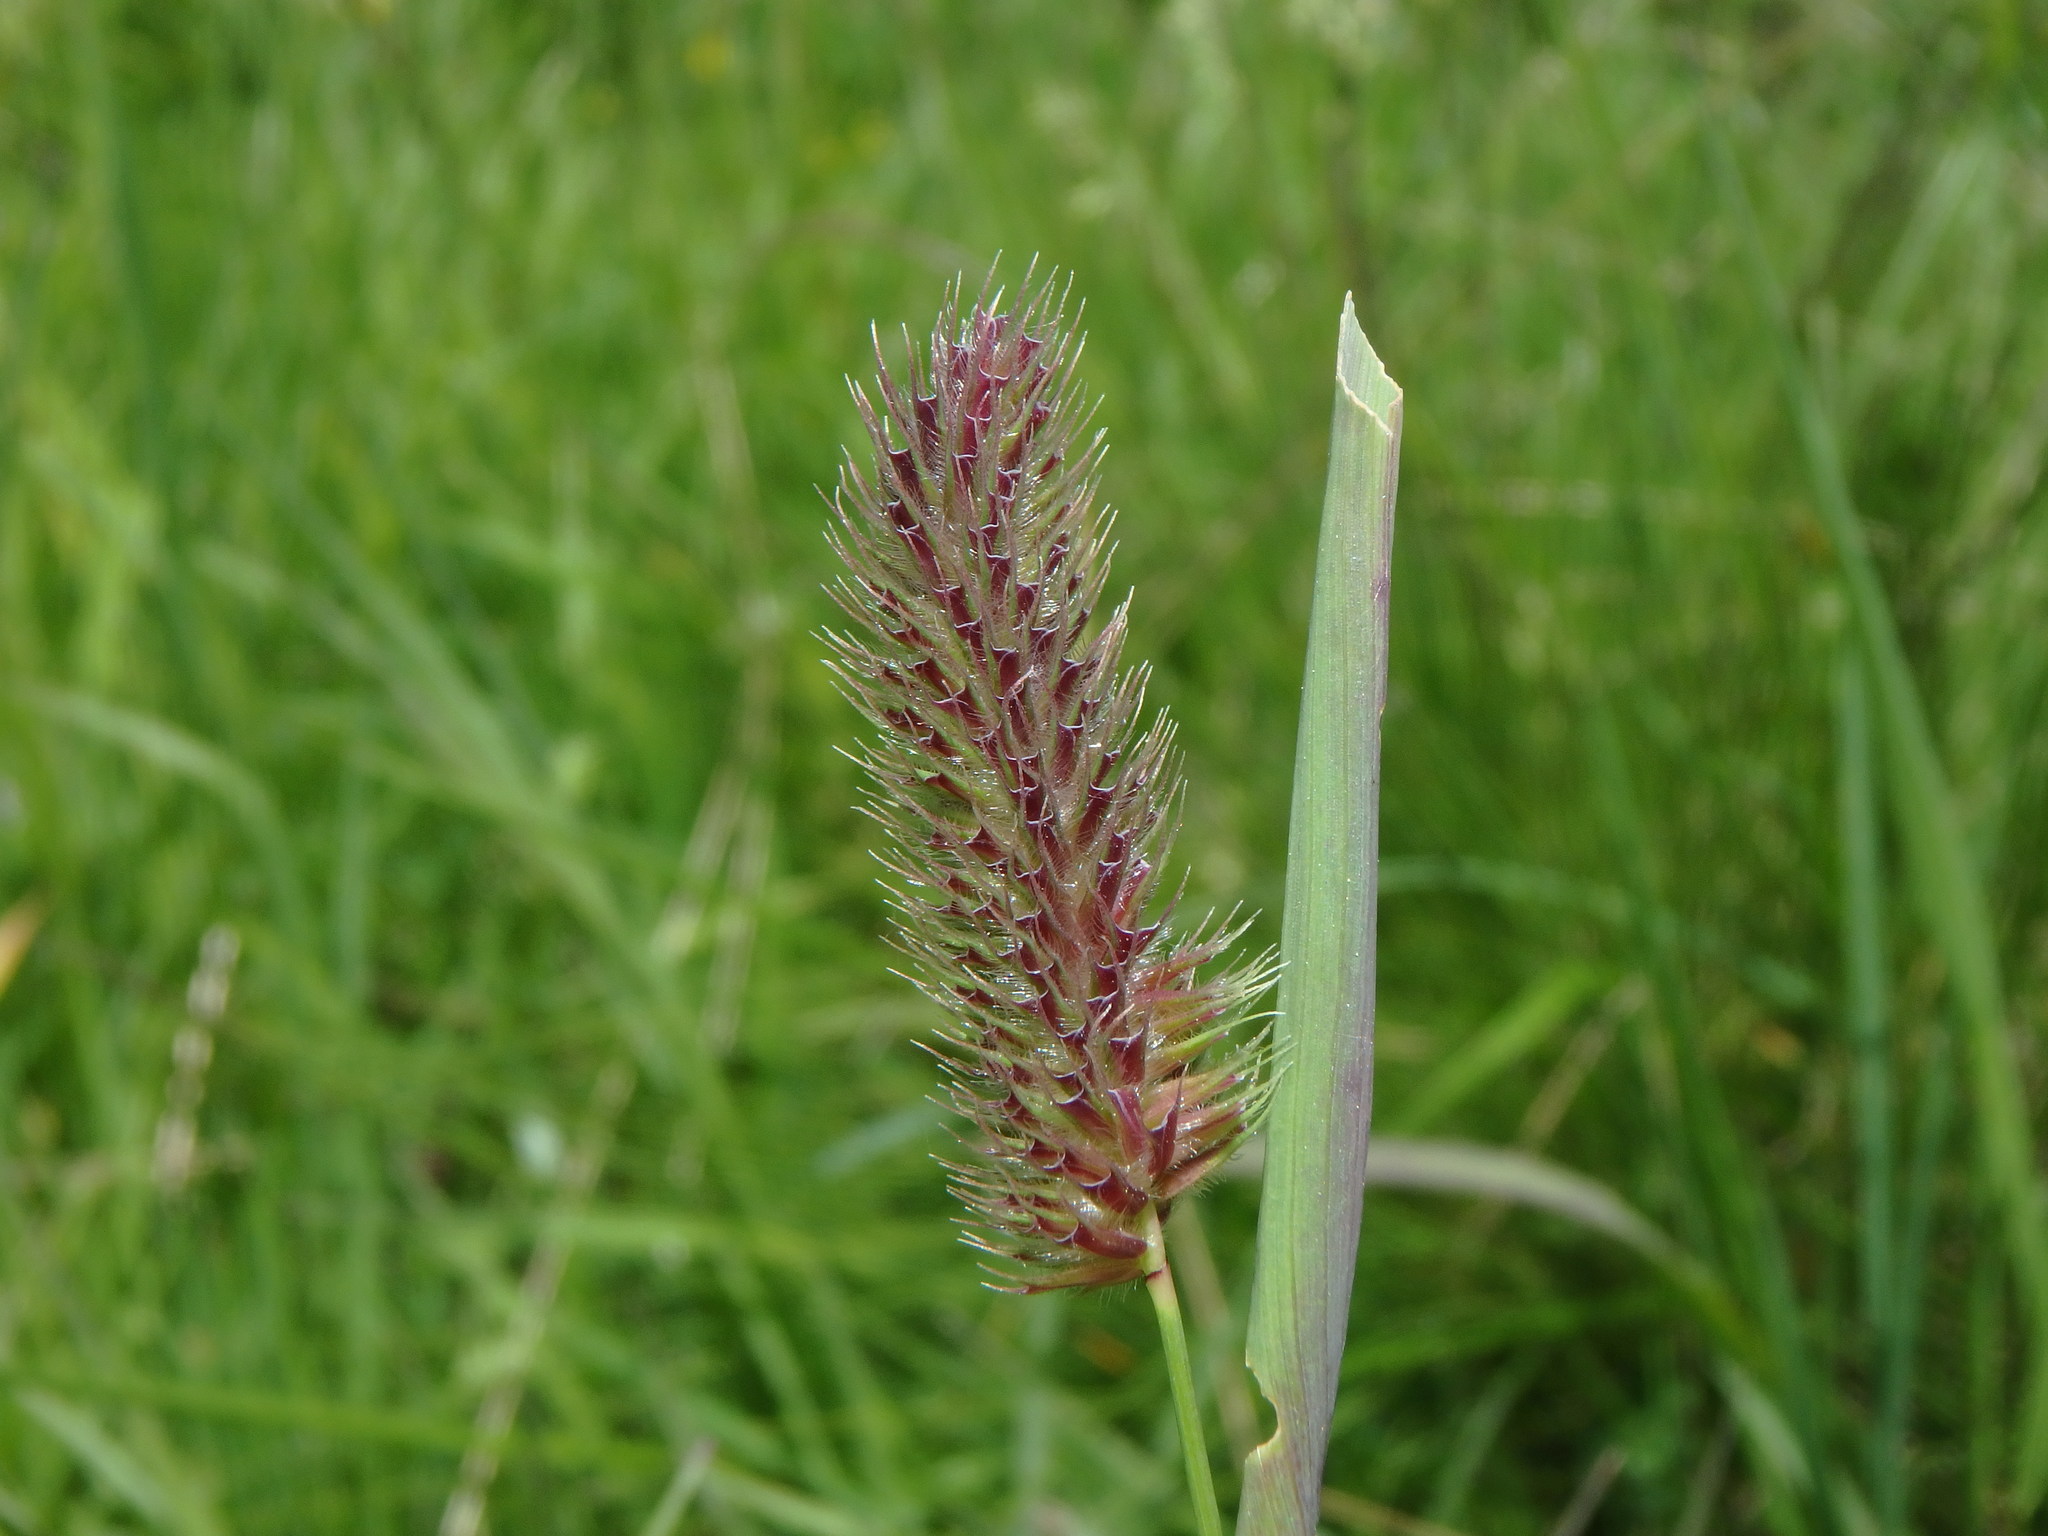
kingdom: Plantae
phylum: Tracheophyta
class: Liliopsida
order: Poales
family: Poaceae
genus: Phleum
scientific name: Phleum alpinum
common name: Alpine cat's-tail
